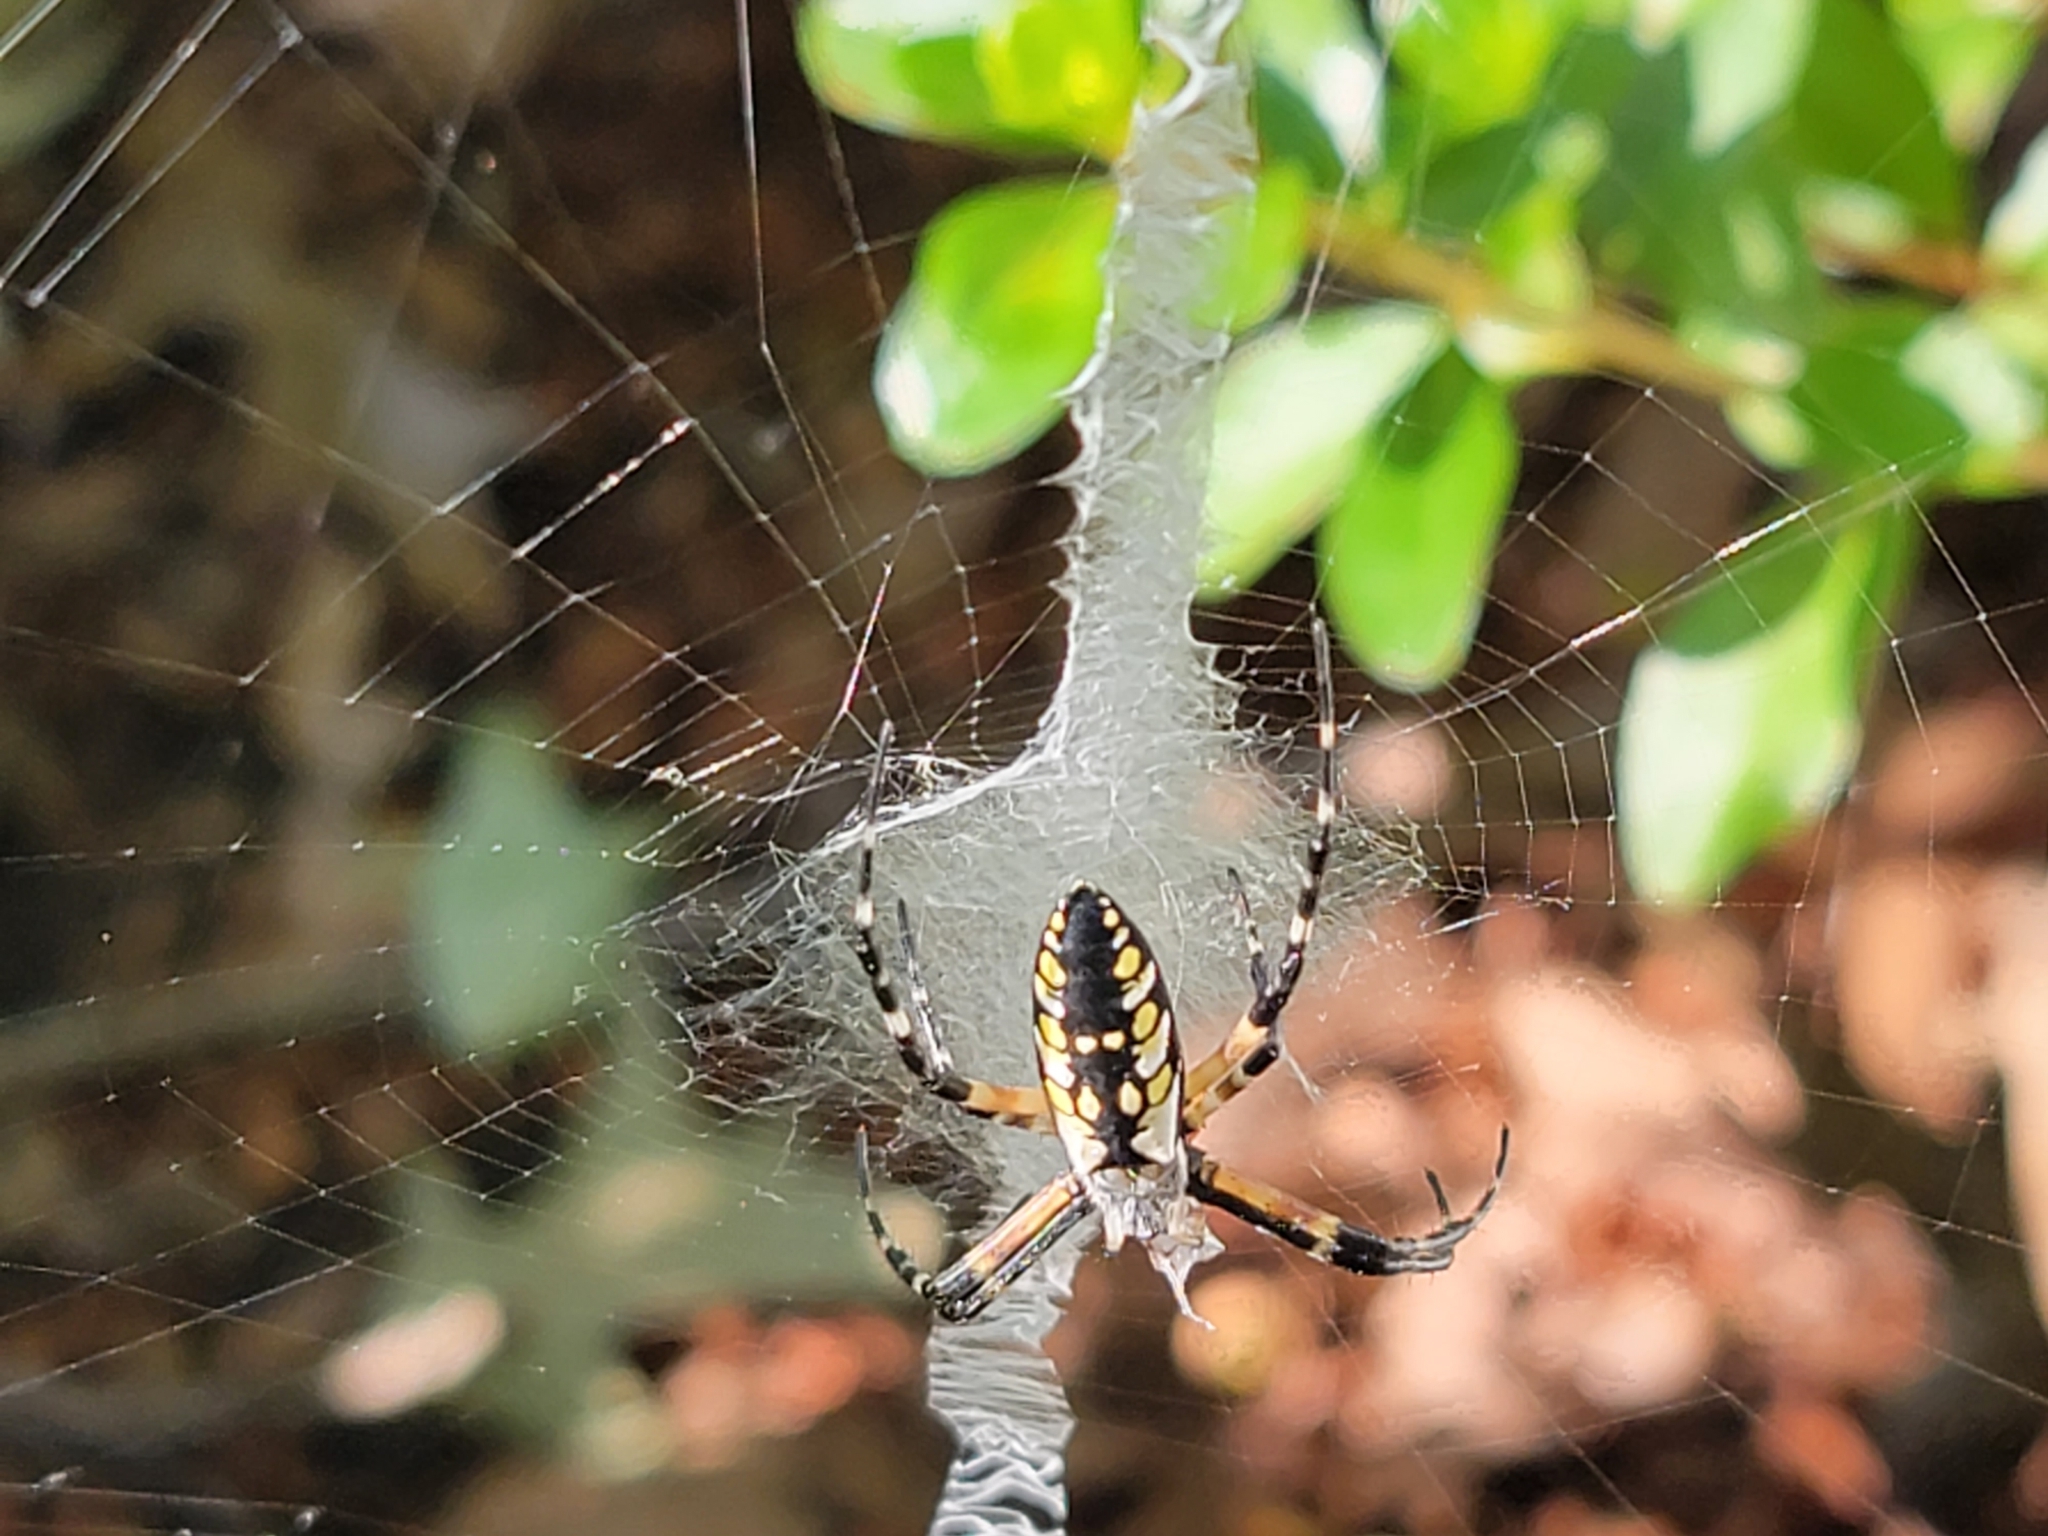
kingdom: Animalia
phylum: Arthropoda
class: Arachnida
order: Araneae
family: Araneidae
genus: Argiope
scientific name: Argiope aurantia
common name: Orb weavers
